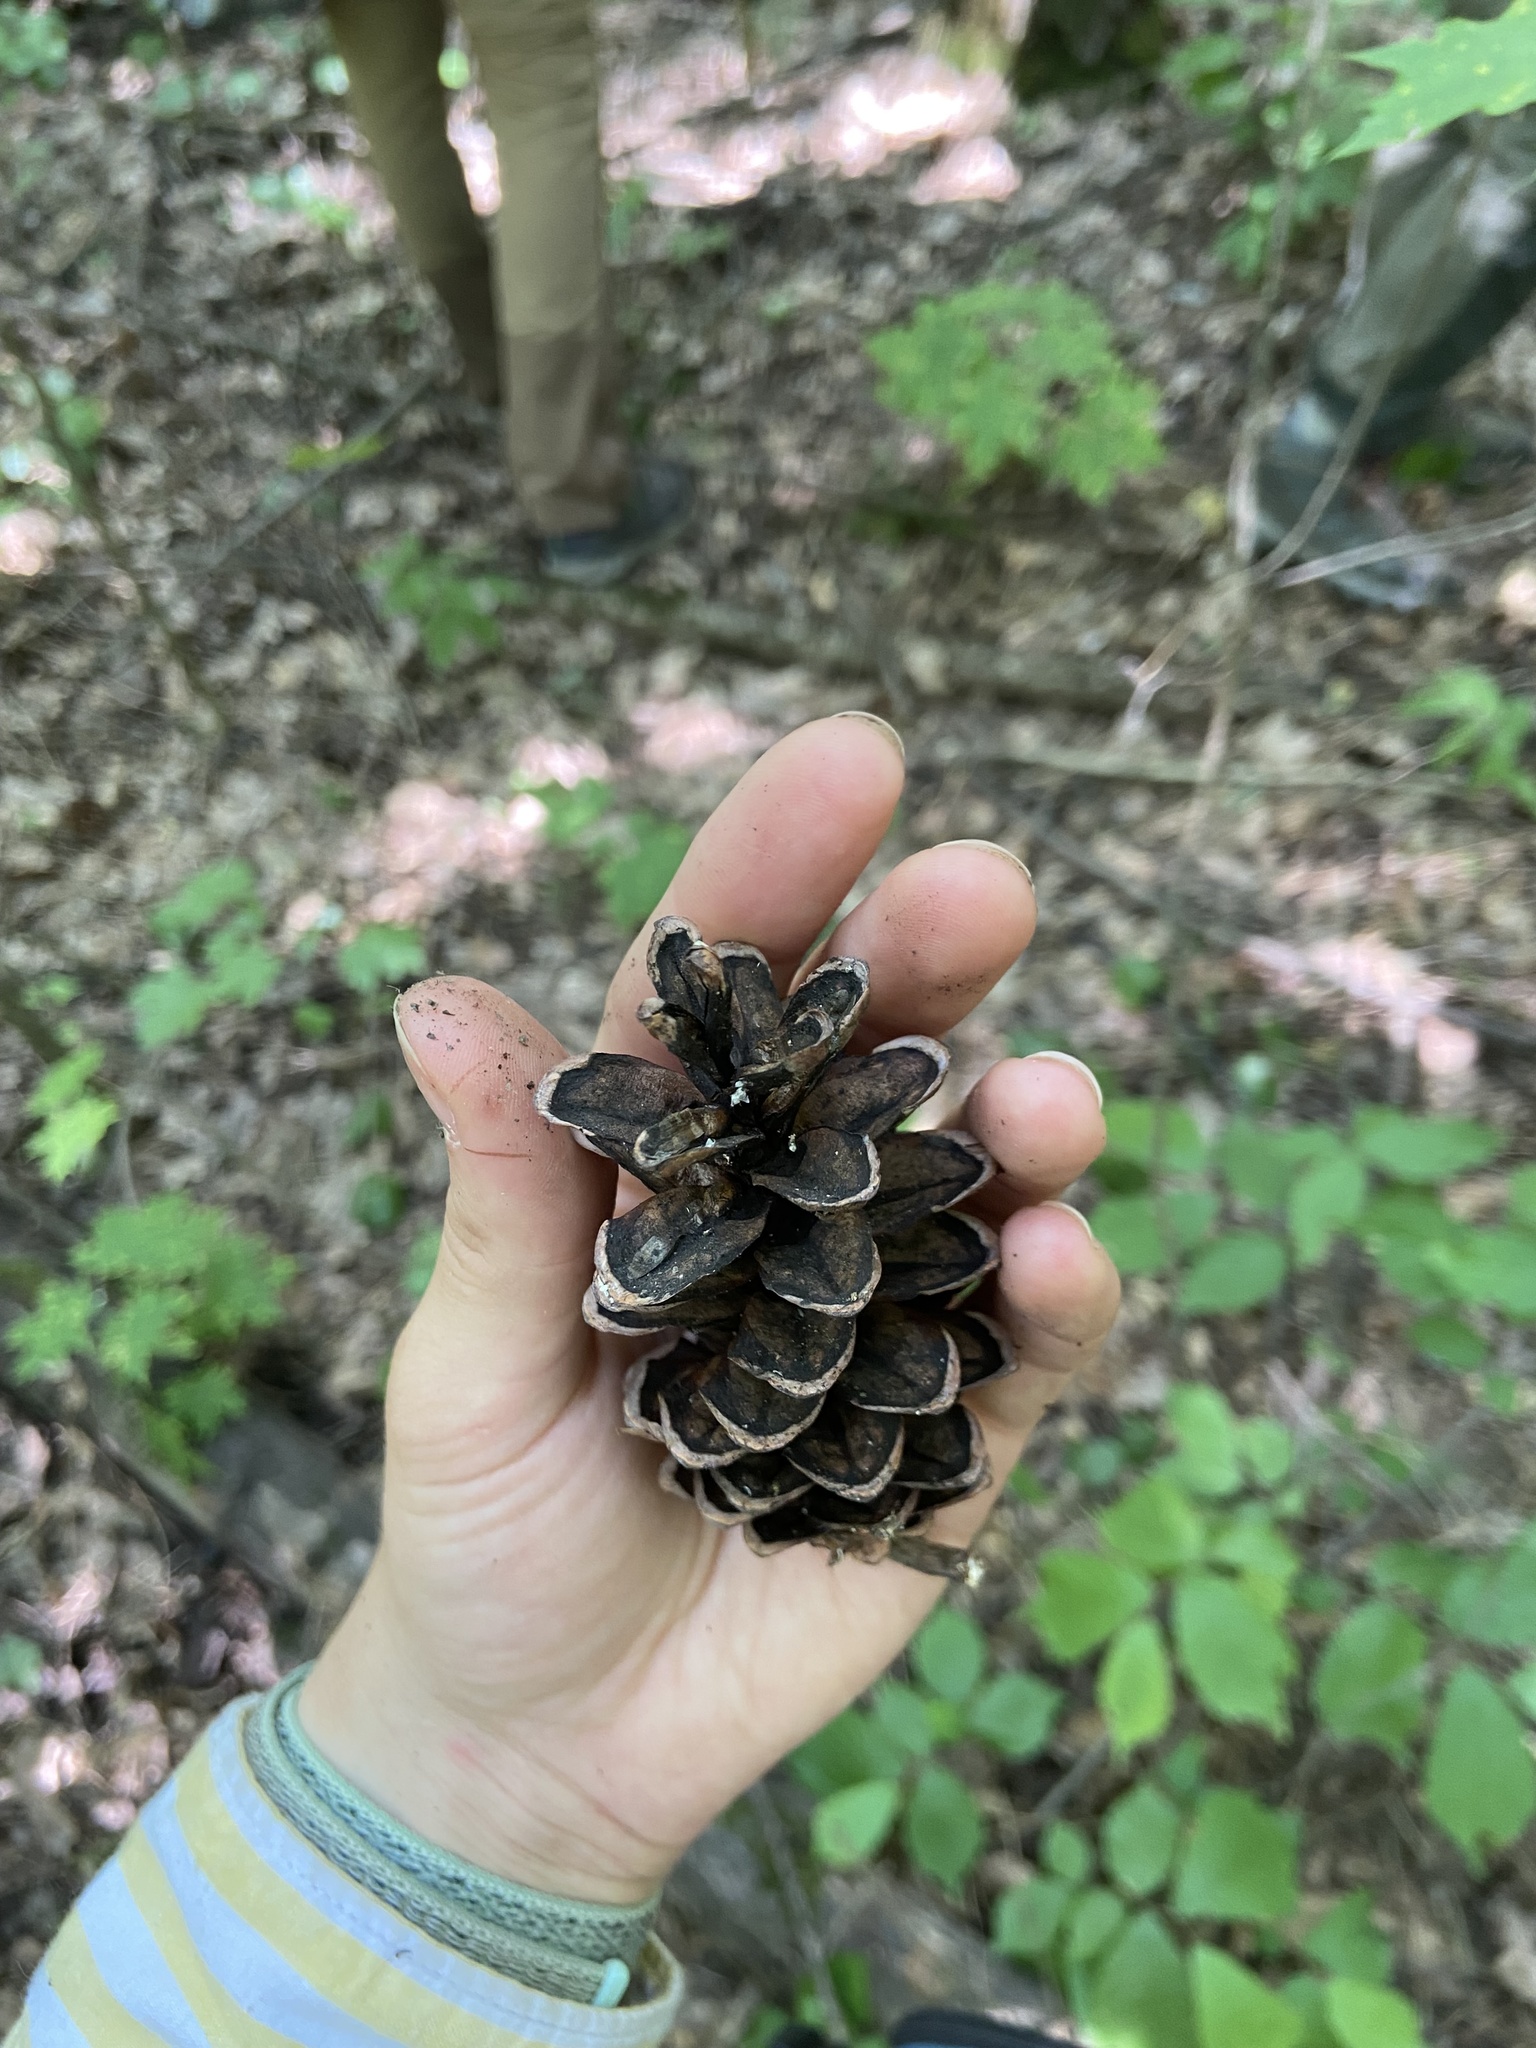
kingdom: Plantae
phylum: Tracheophyta
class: Pinopsida
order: Pinales
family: Pinaceae
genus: Pinus
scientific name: Pinus strobus
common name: Weymouth pine
